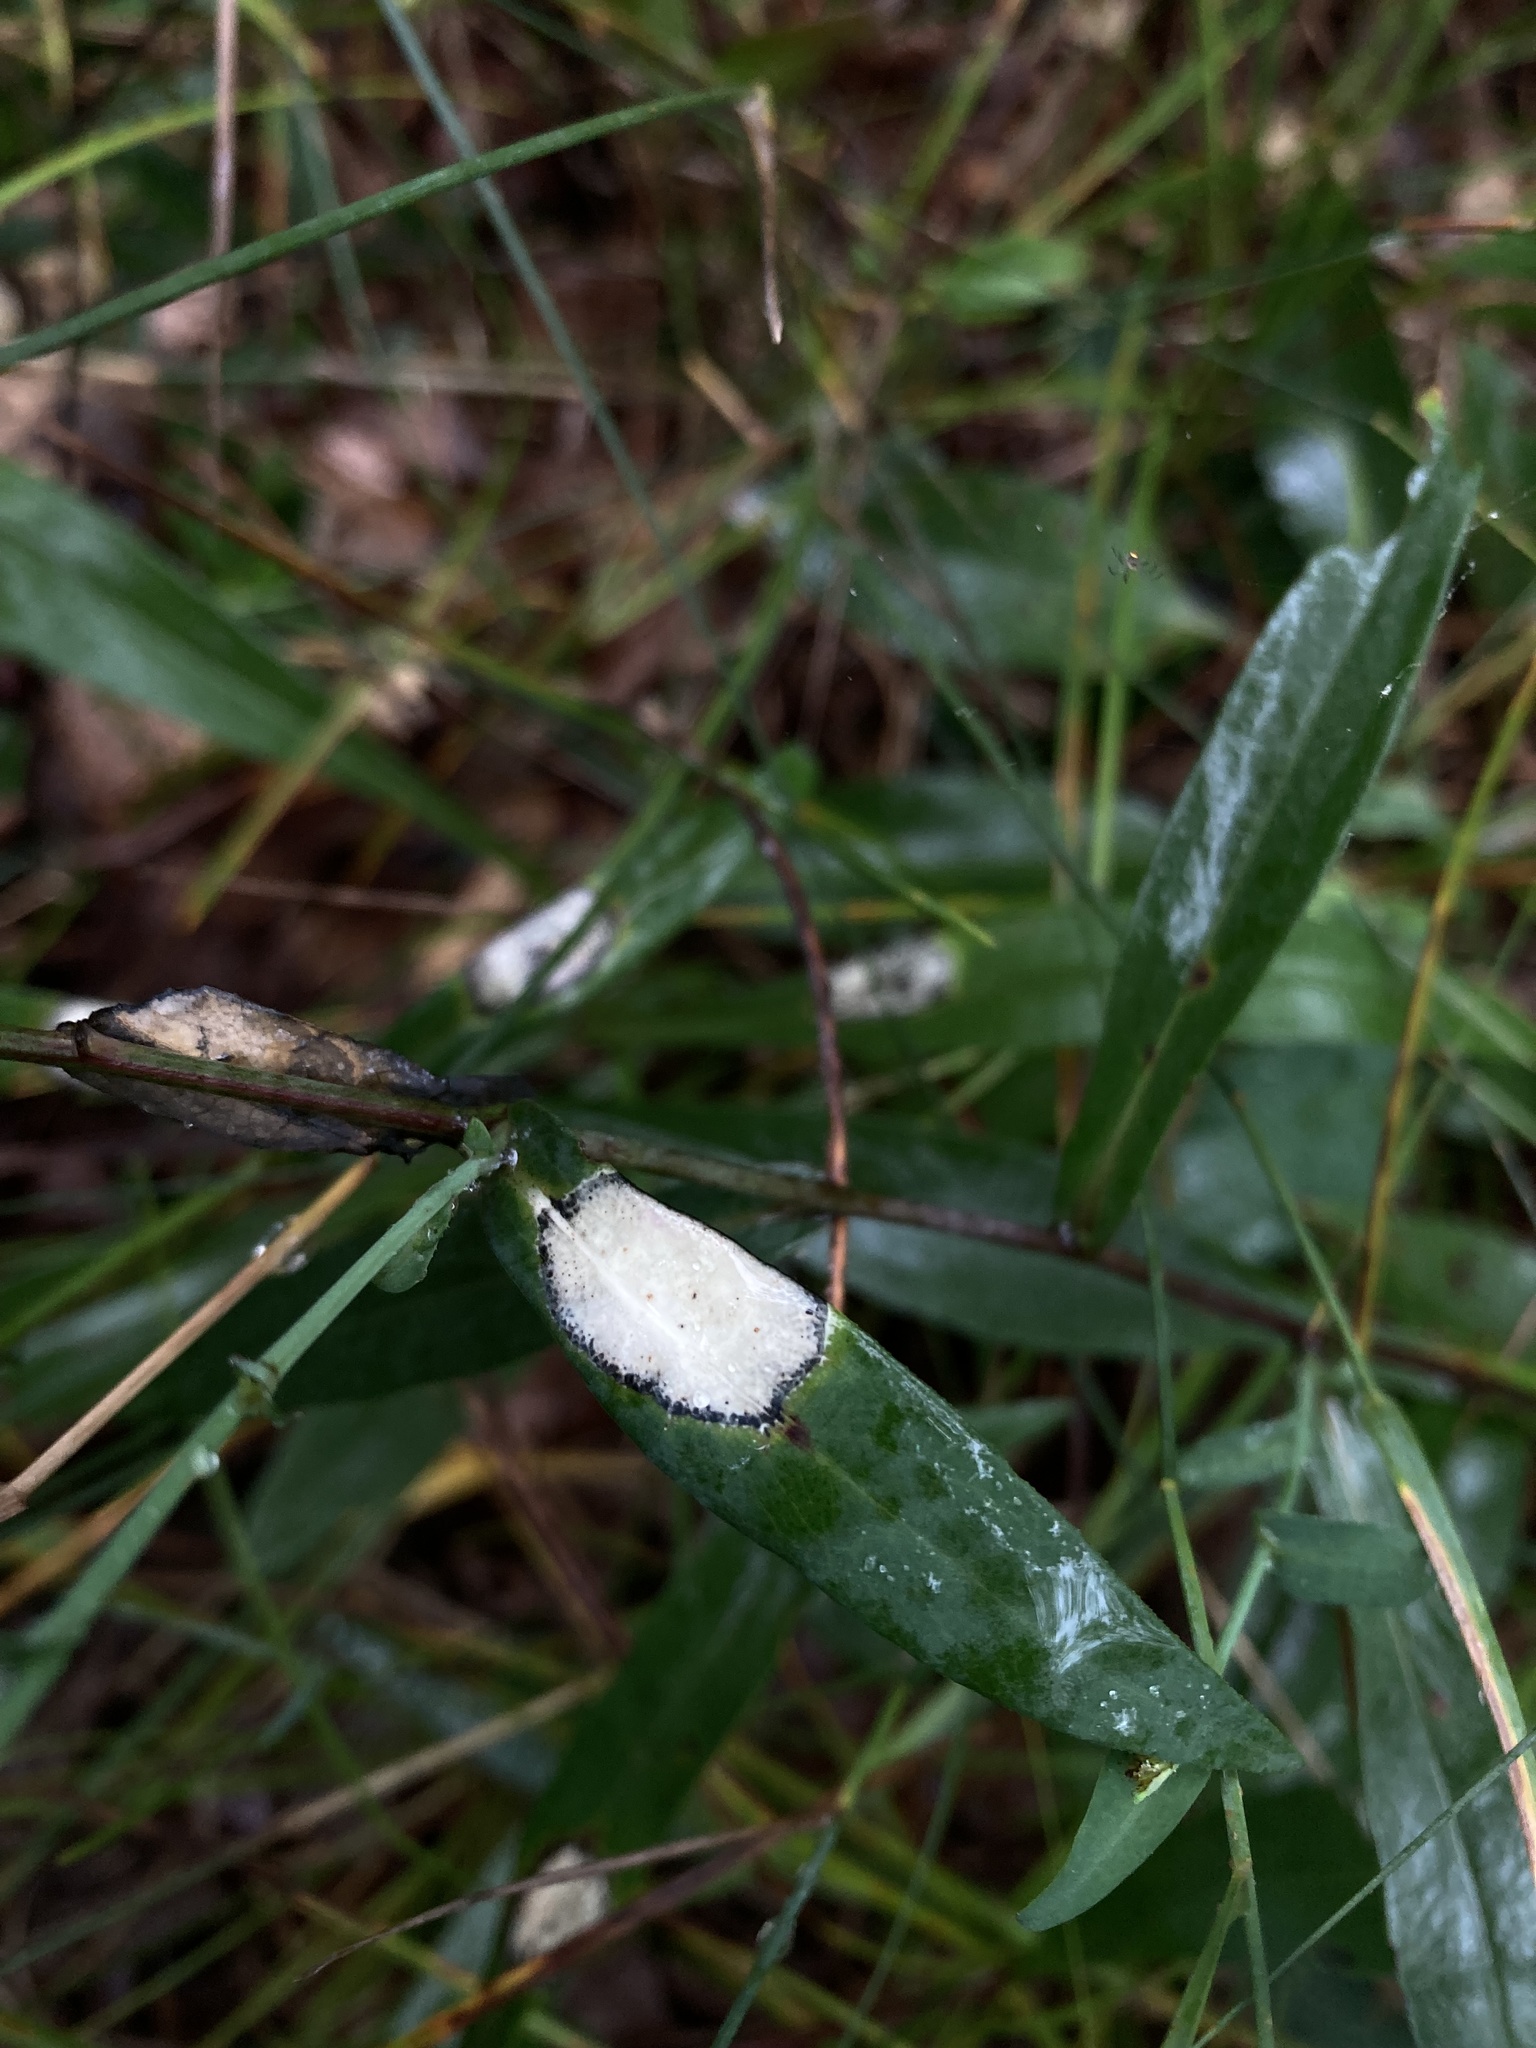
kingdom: Animalia
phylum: Arthropoda
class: Insecta
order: Diptera
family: Cecidomyiidae
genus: Asteromyia
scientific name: Asteromyia carbonifera
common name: Carbonifera goldenrod gall midge
